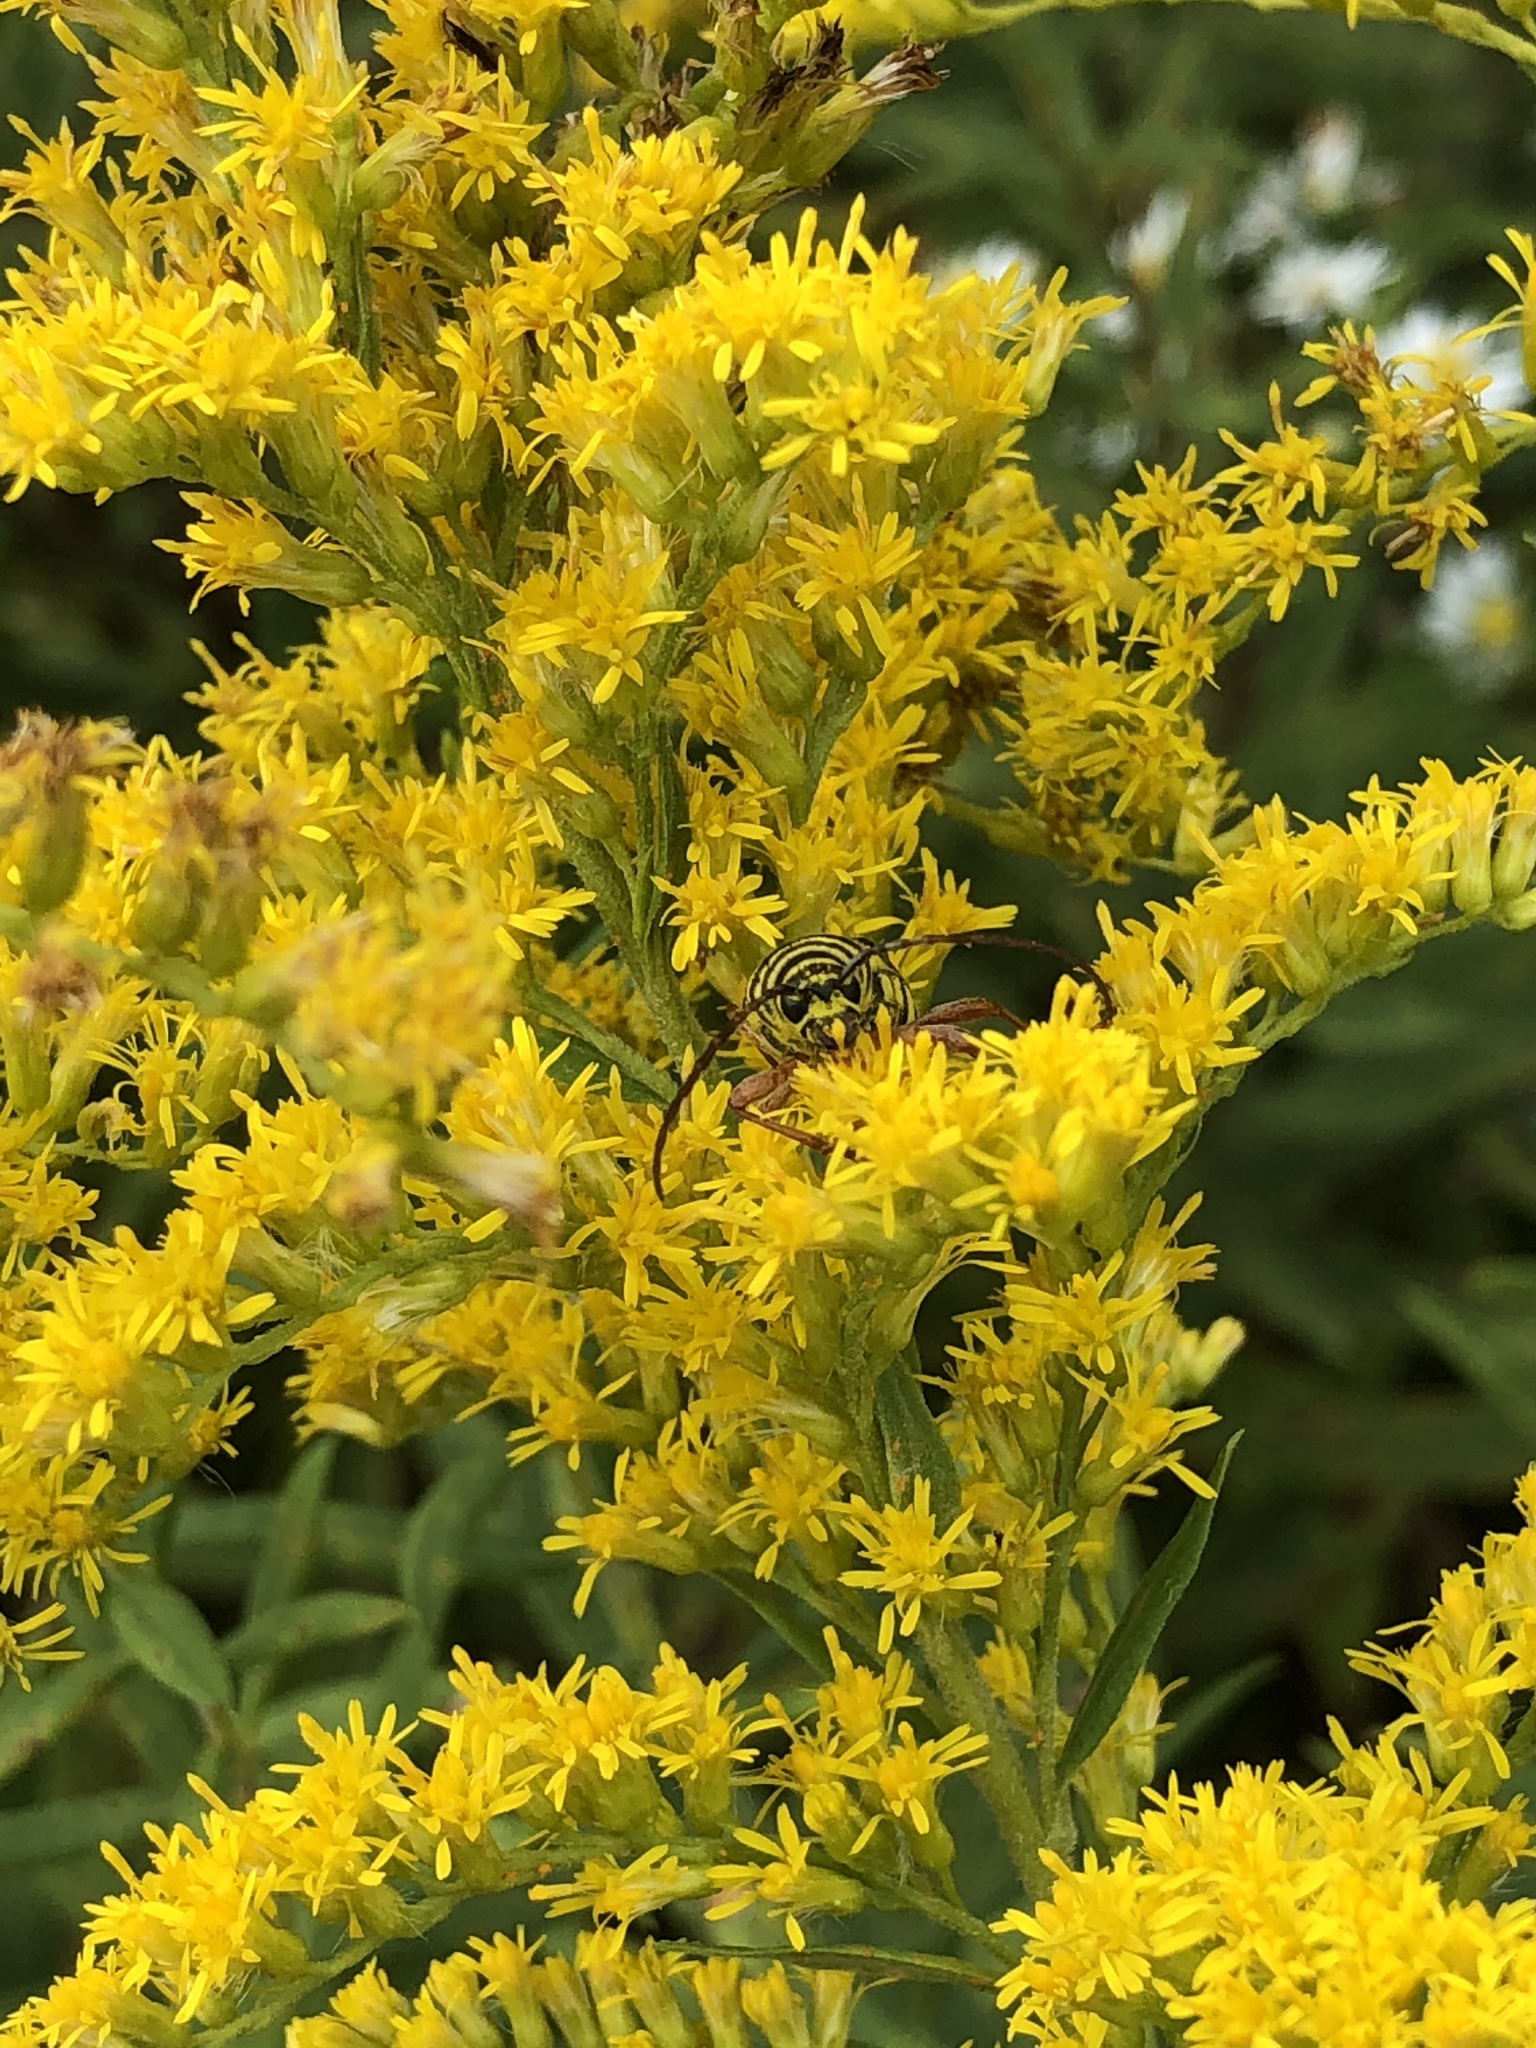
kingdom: Animalia
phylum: Arthropoda
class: Insecta
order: Coleoptera
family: Cerambycidae
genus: Megacyllene
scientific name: Megacyllene robiniae
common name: Locust borer
